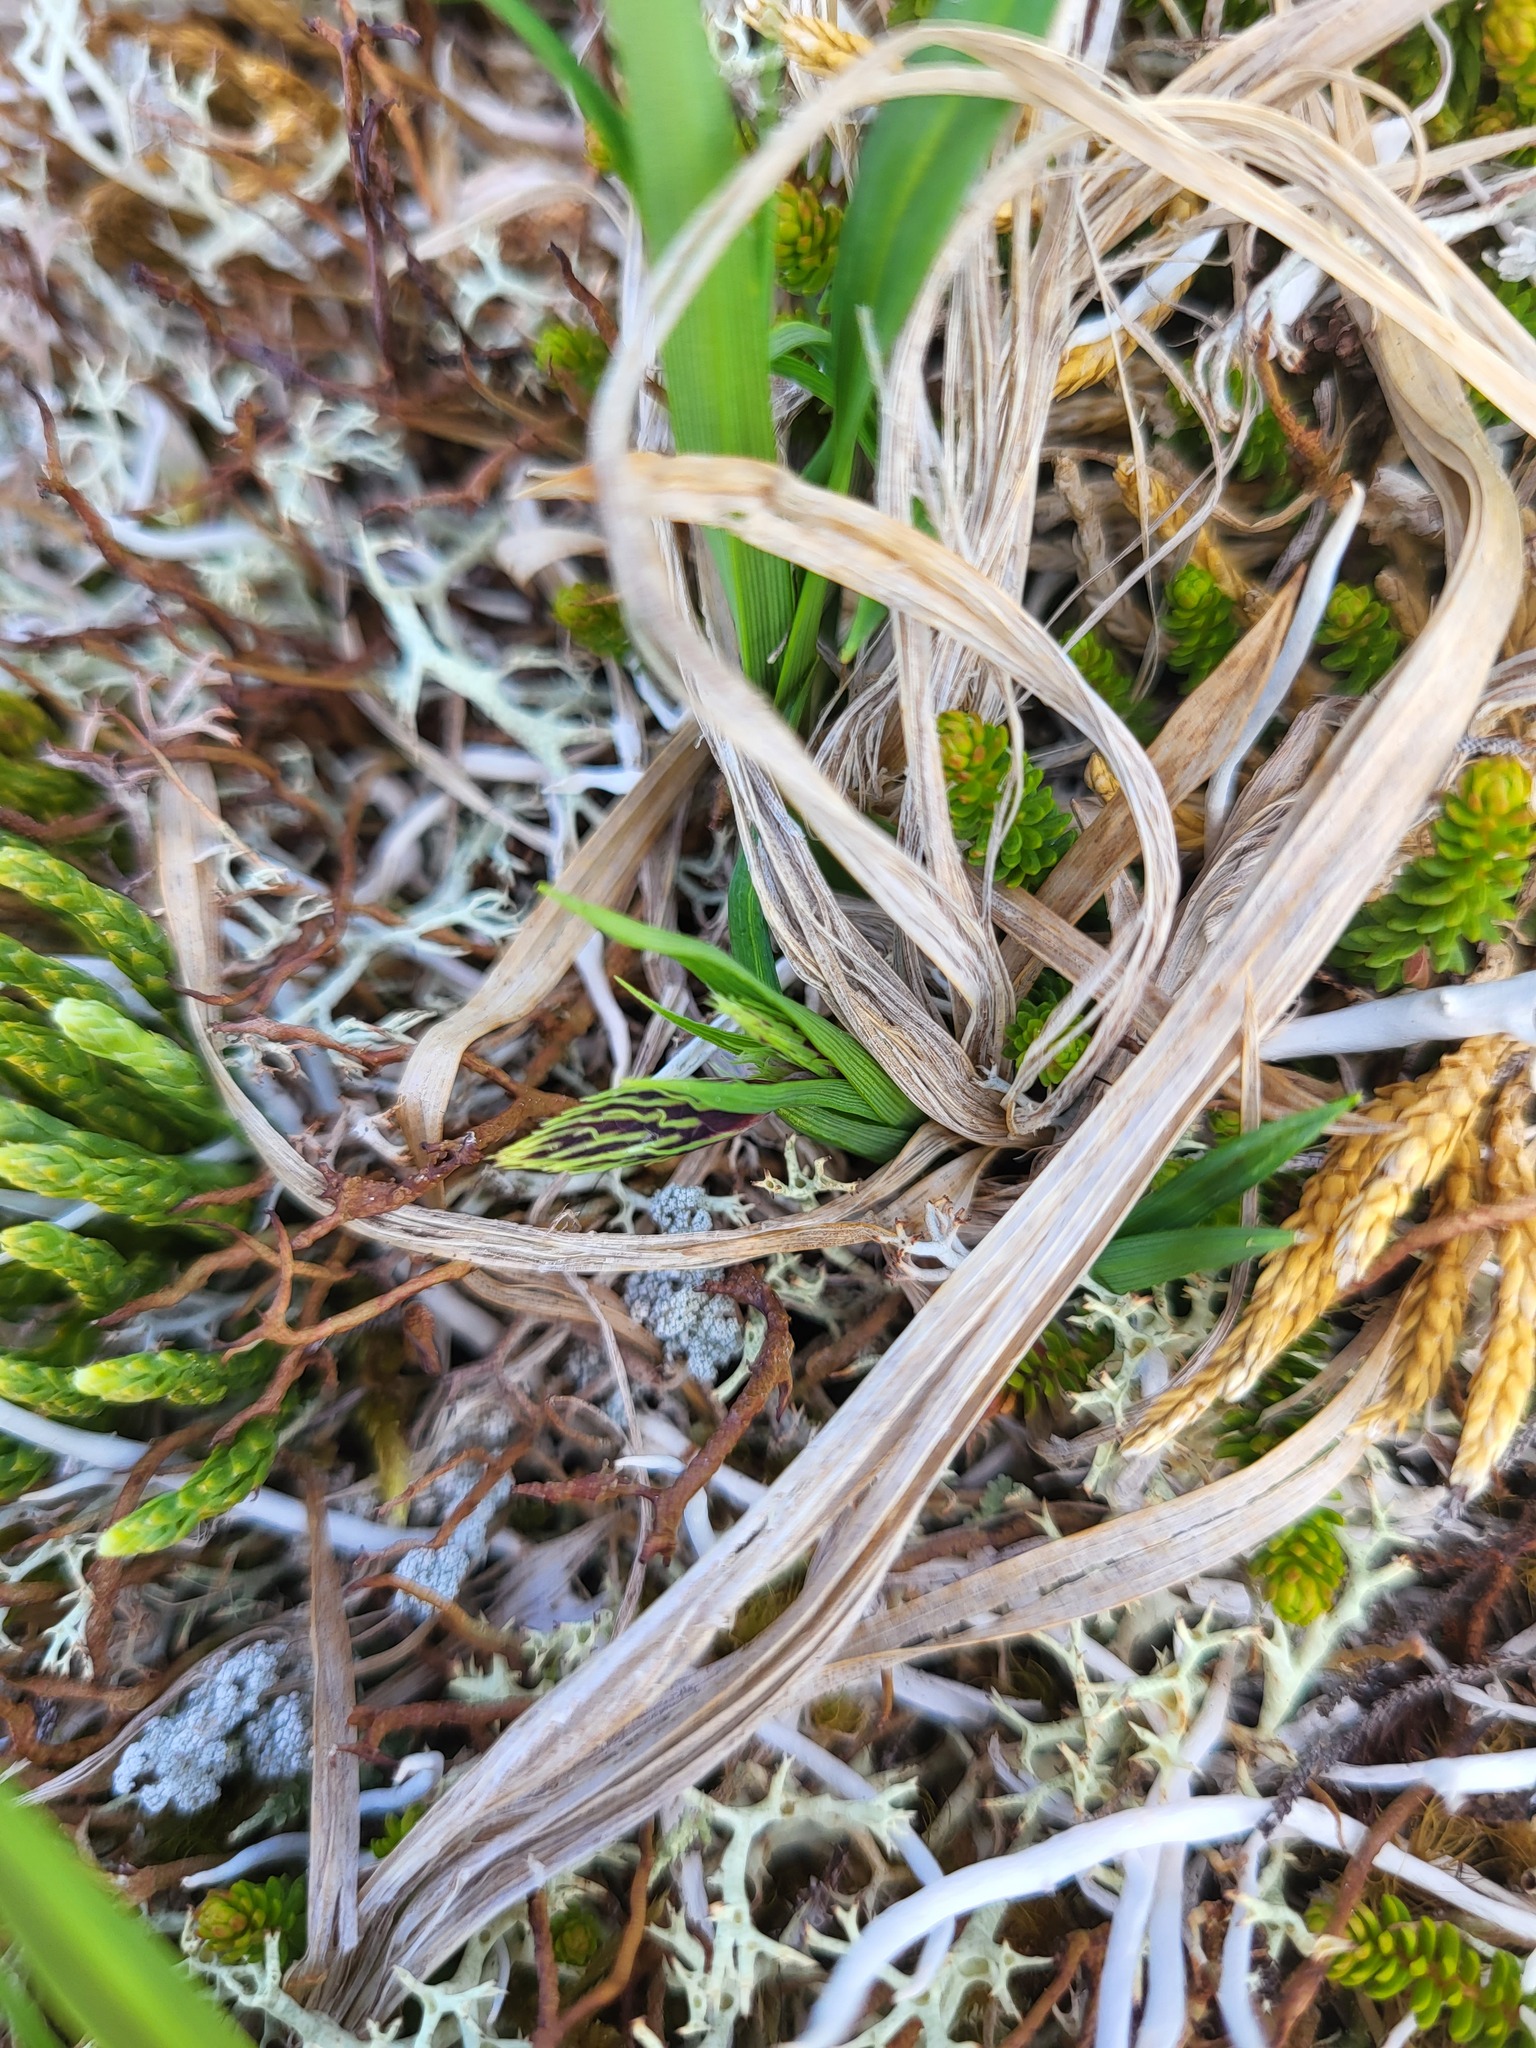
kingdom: Plantae
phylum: Tracheophyta
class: Liliopsida
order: Poales
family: Cyperaceae
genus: Carex
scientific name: Carex macrochaeta
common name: Alaska large awn sedge
